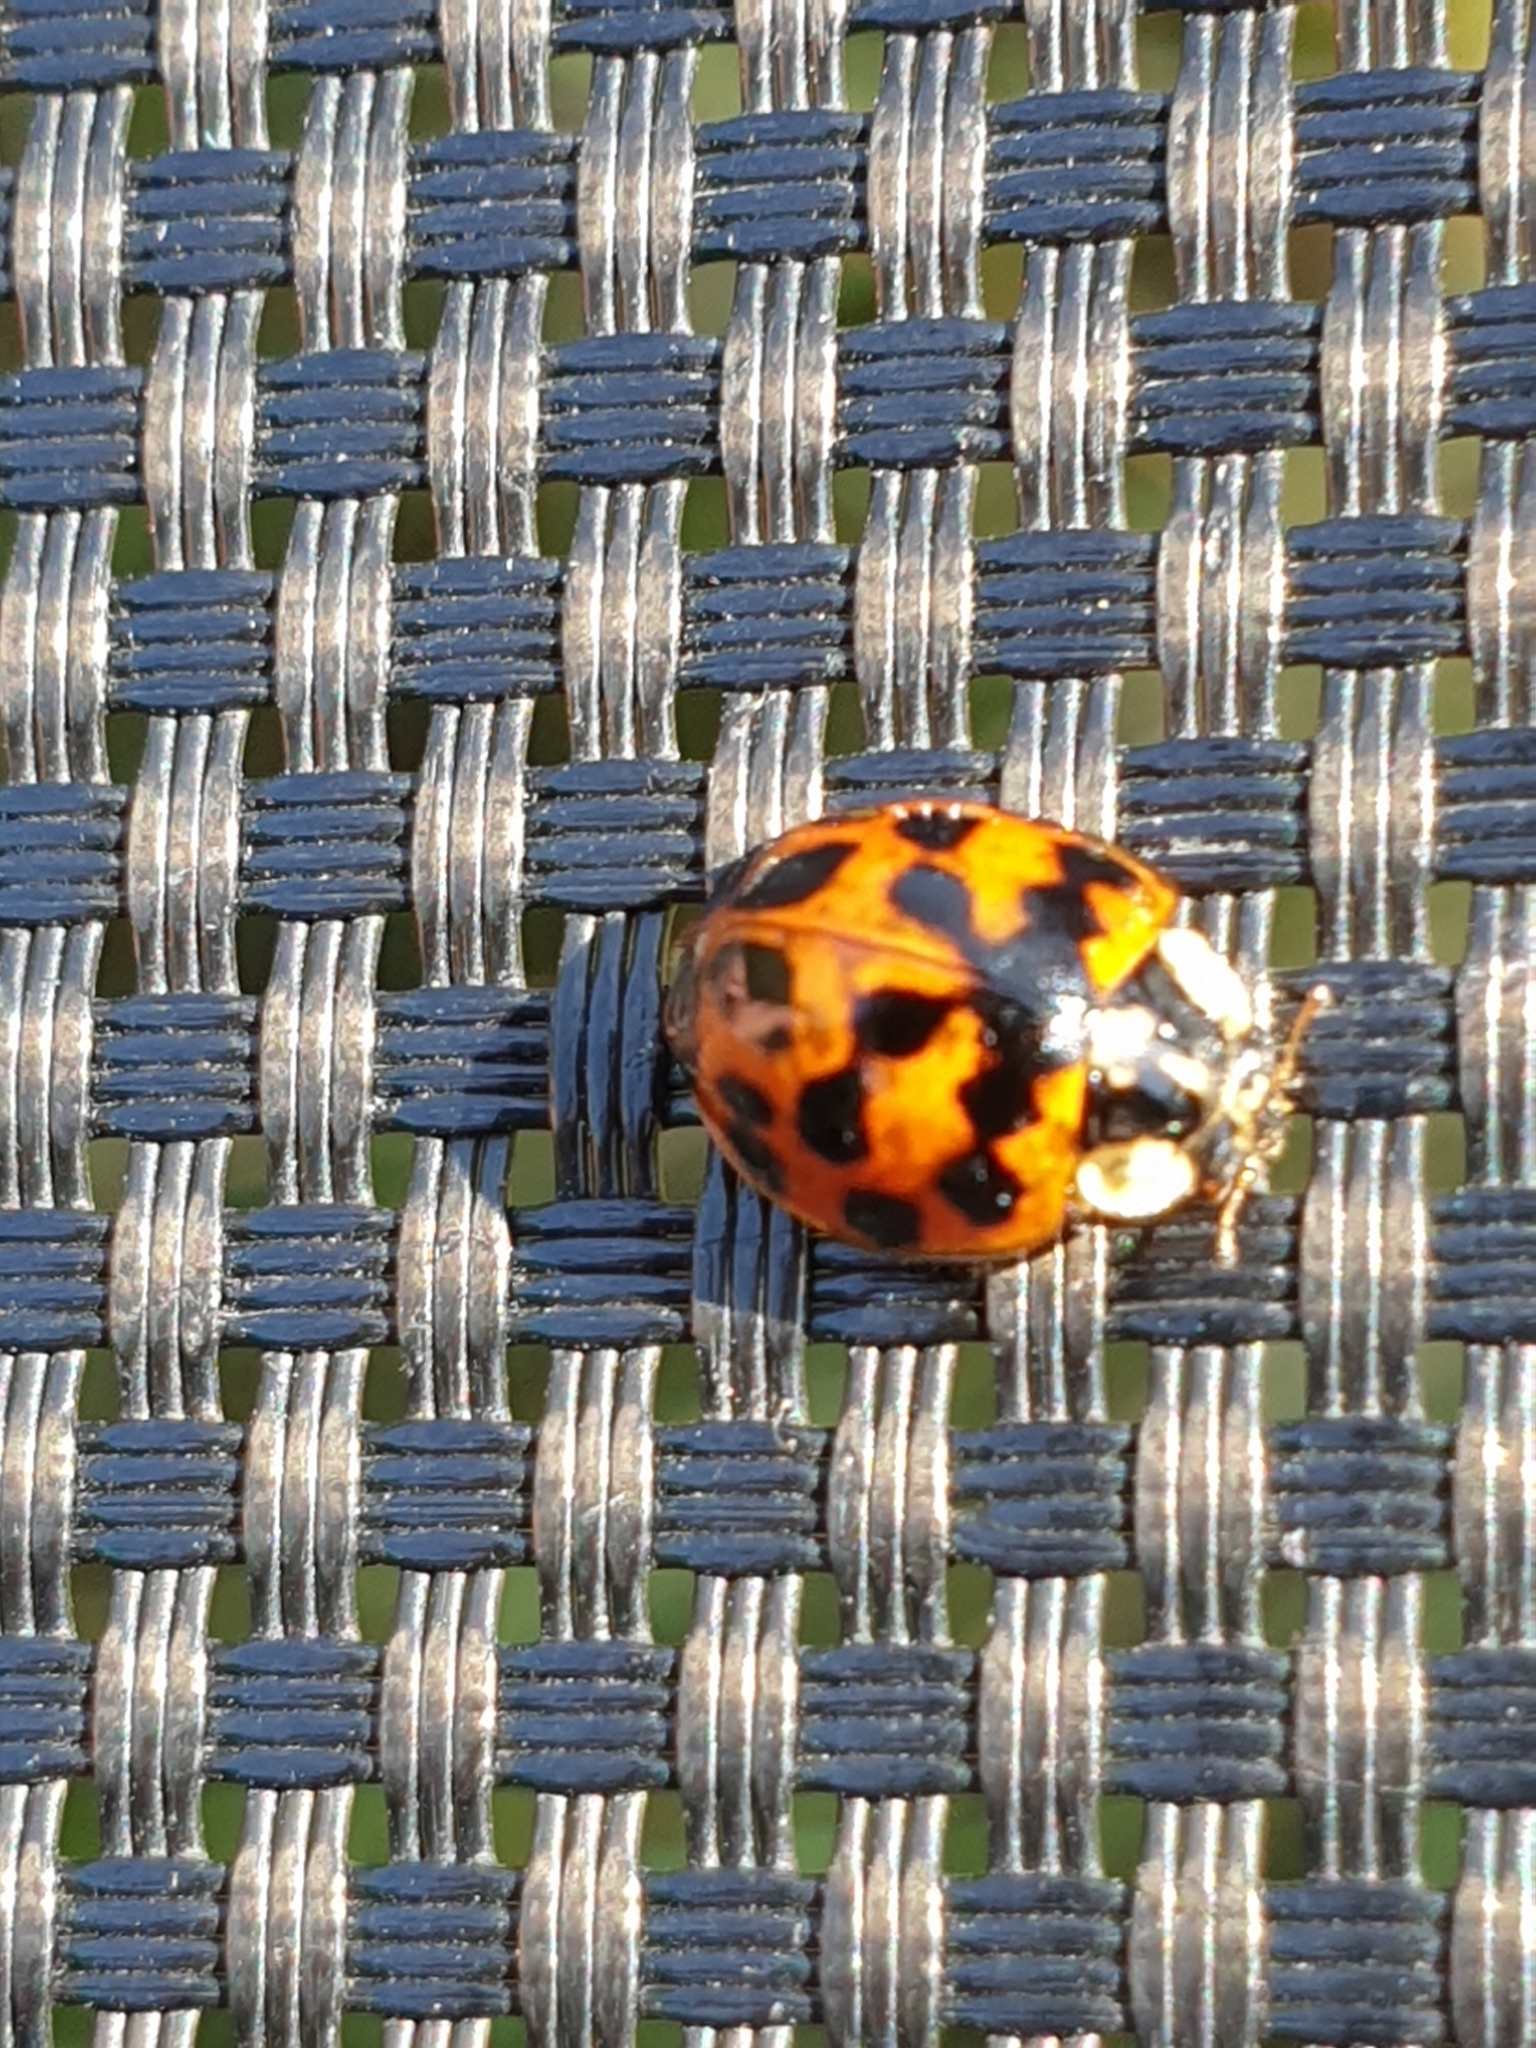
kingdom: Animalia
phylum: Arthropoda
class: Insecta
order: Coleoptera
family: Coccinellidae
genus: Harmonia
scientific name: Harmonia axyridis
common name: Harlequin ladybird
